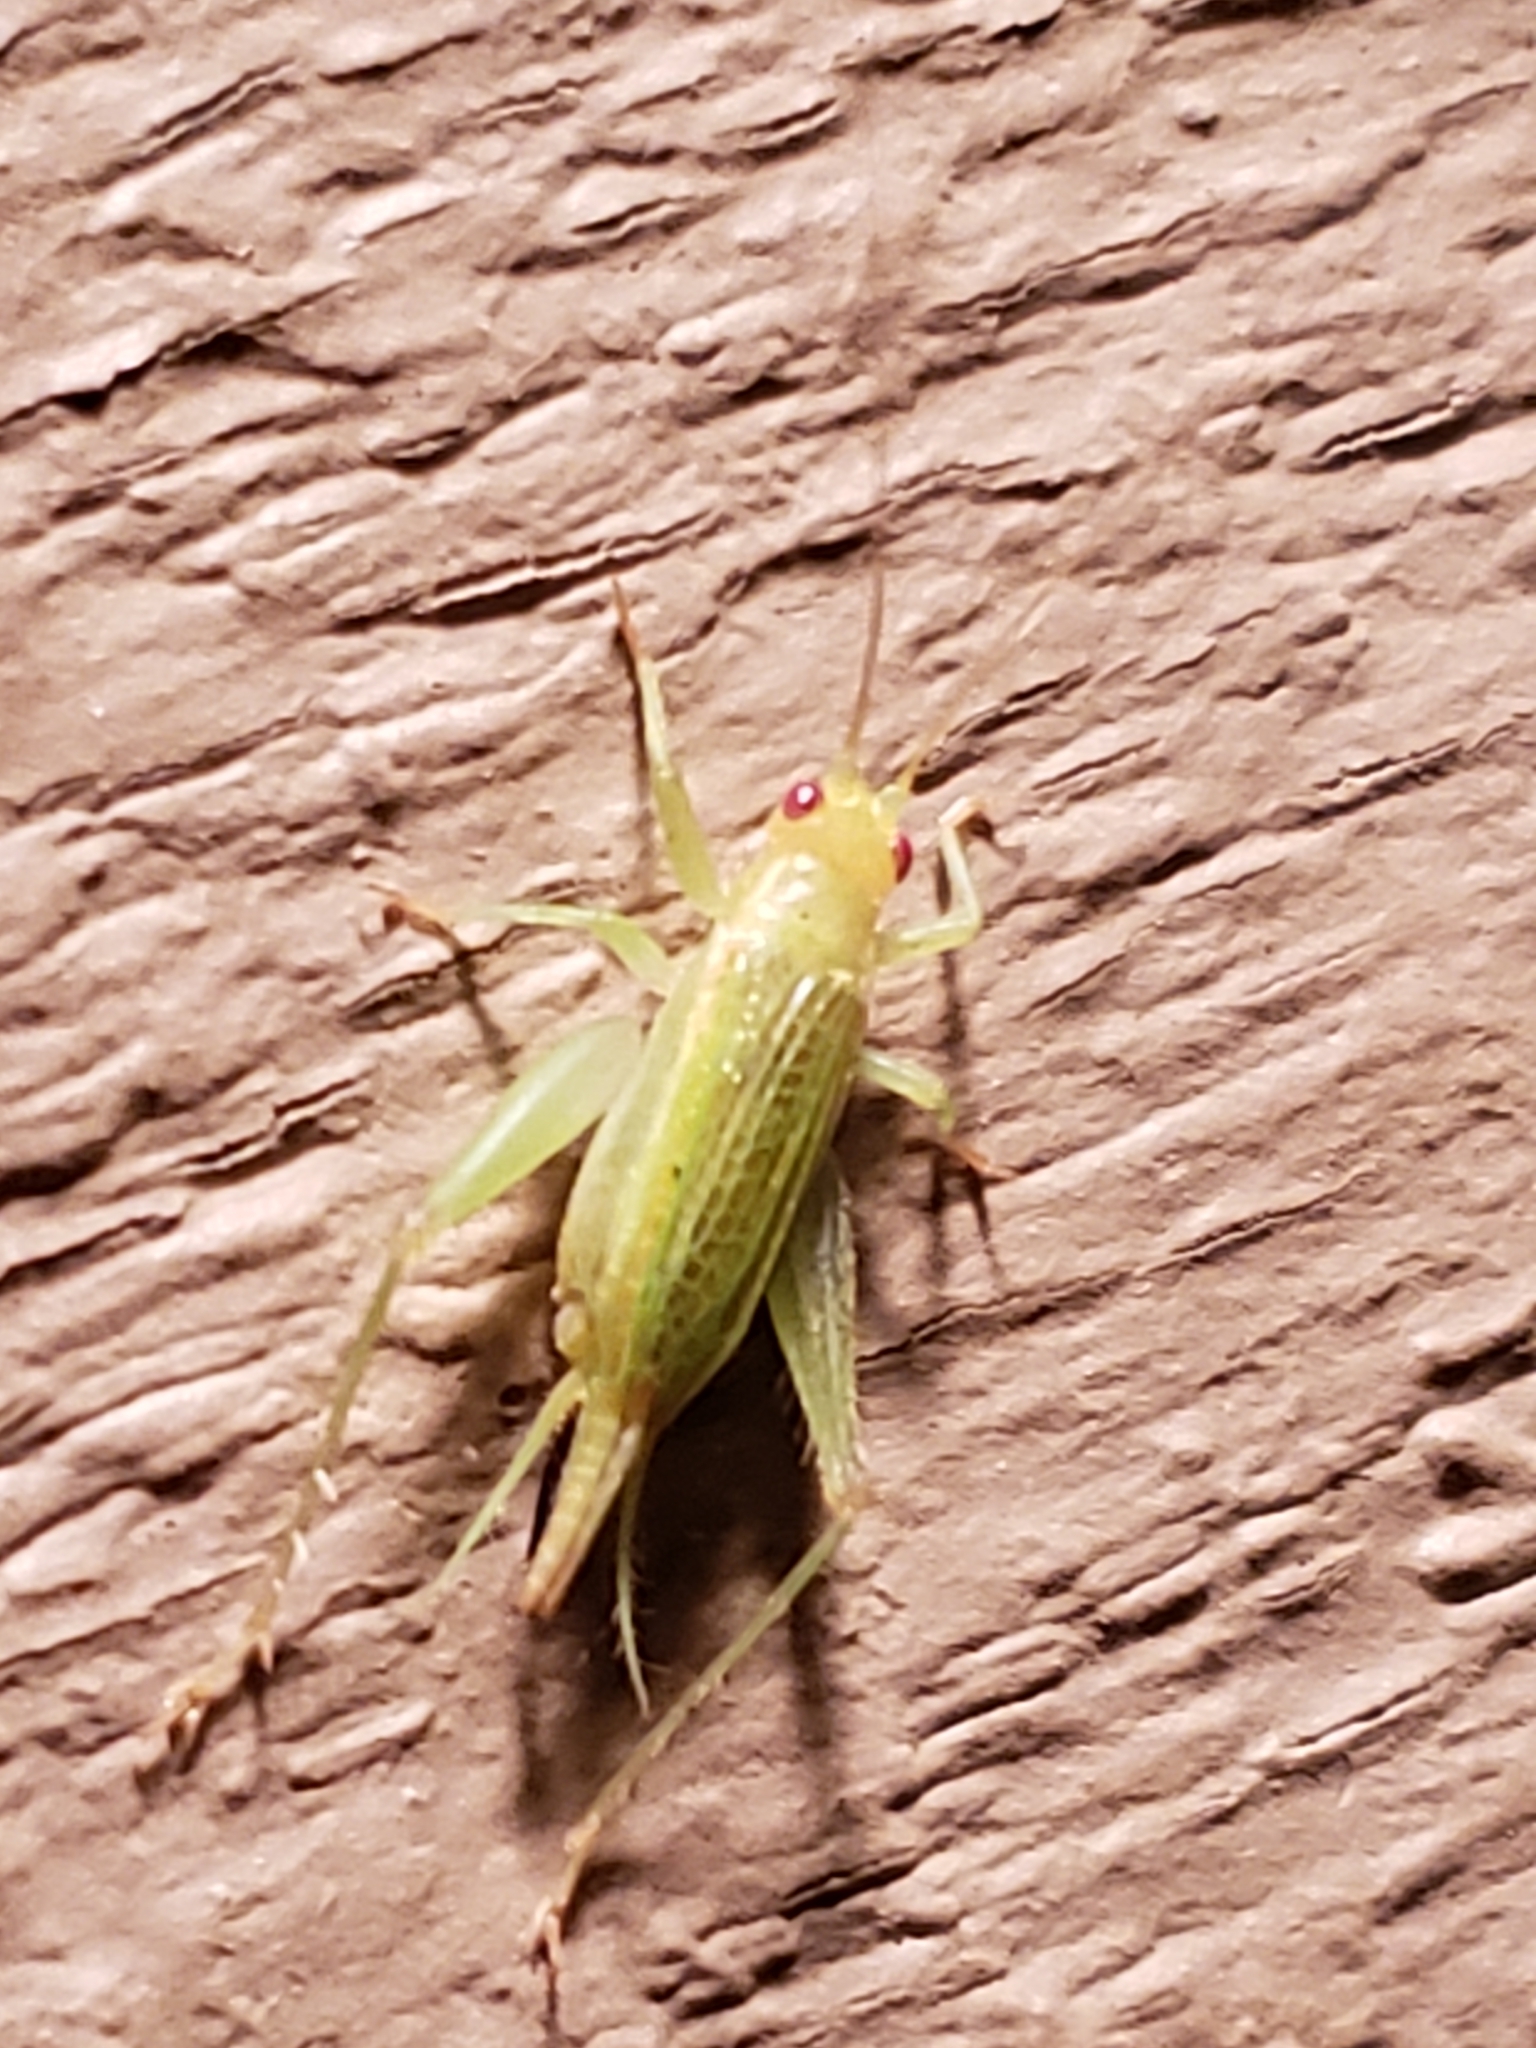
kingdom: Animalia
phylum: Arthropoda
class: Insecta
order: Orthoptera
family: Trigonidiidae
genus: Cyrtoxipha
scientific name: Cyrtoxipha columbiana
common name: Columbian trig
